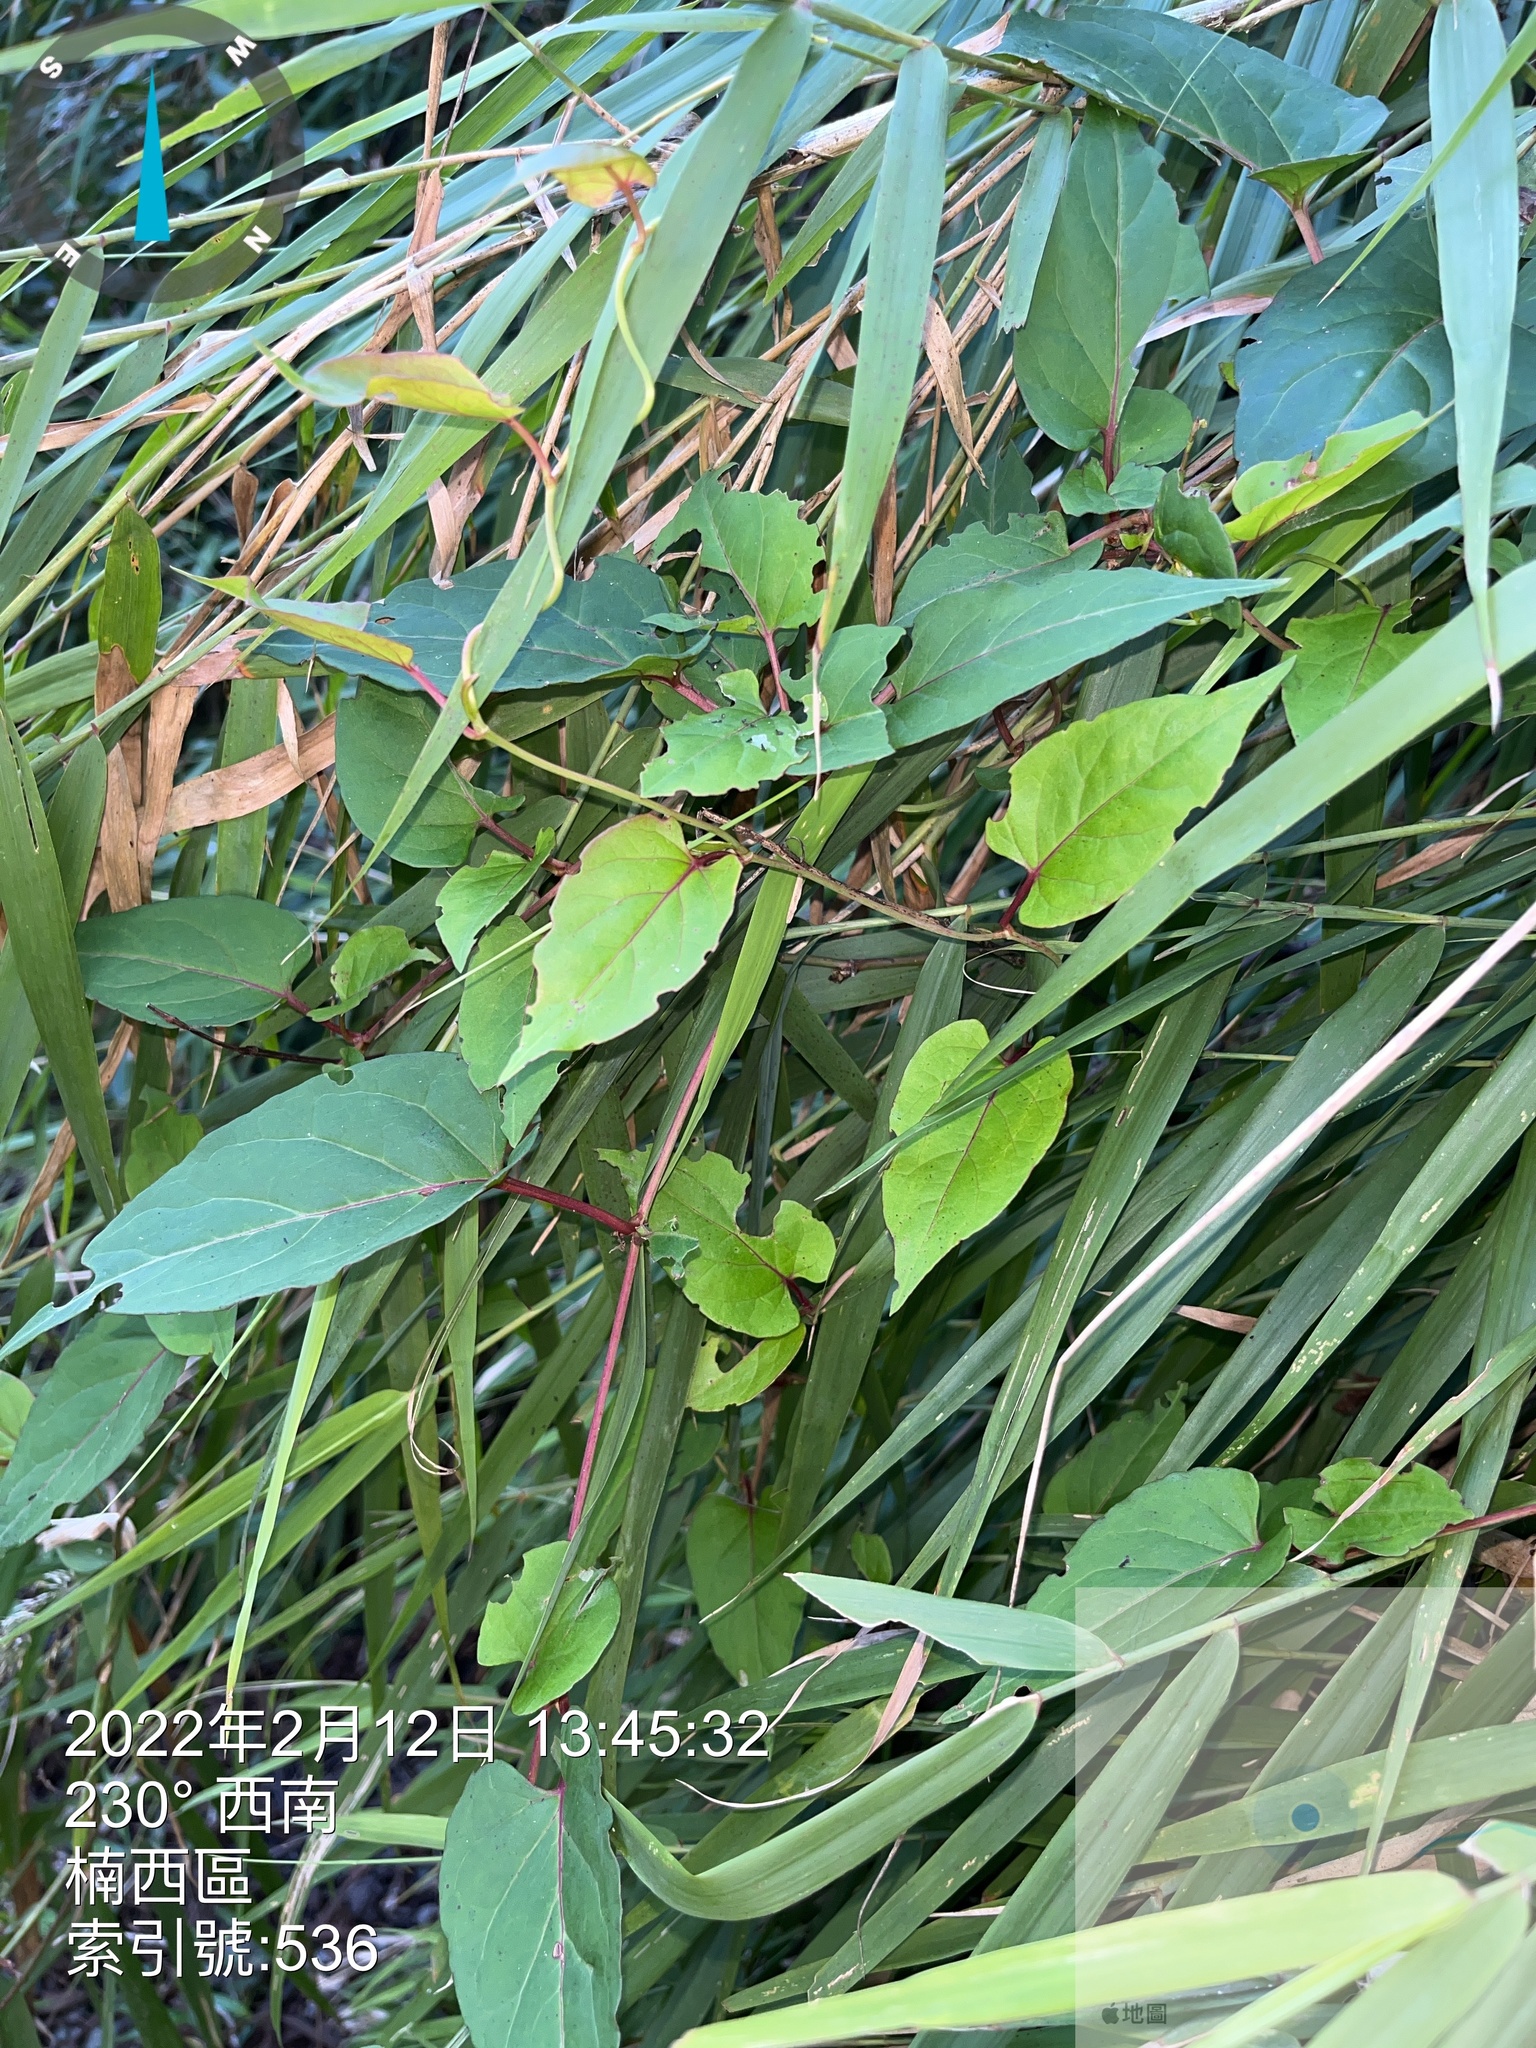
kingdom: Plantae
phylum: Tracheophyta
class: Magnoliopsida
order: Caryophyllales
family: Polygonaceae
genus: Reynoutria
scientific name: Reynoutria multiflora
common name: Chinese fleeceflower
